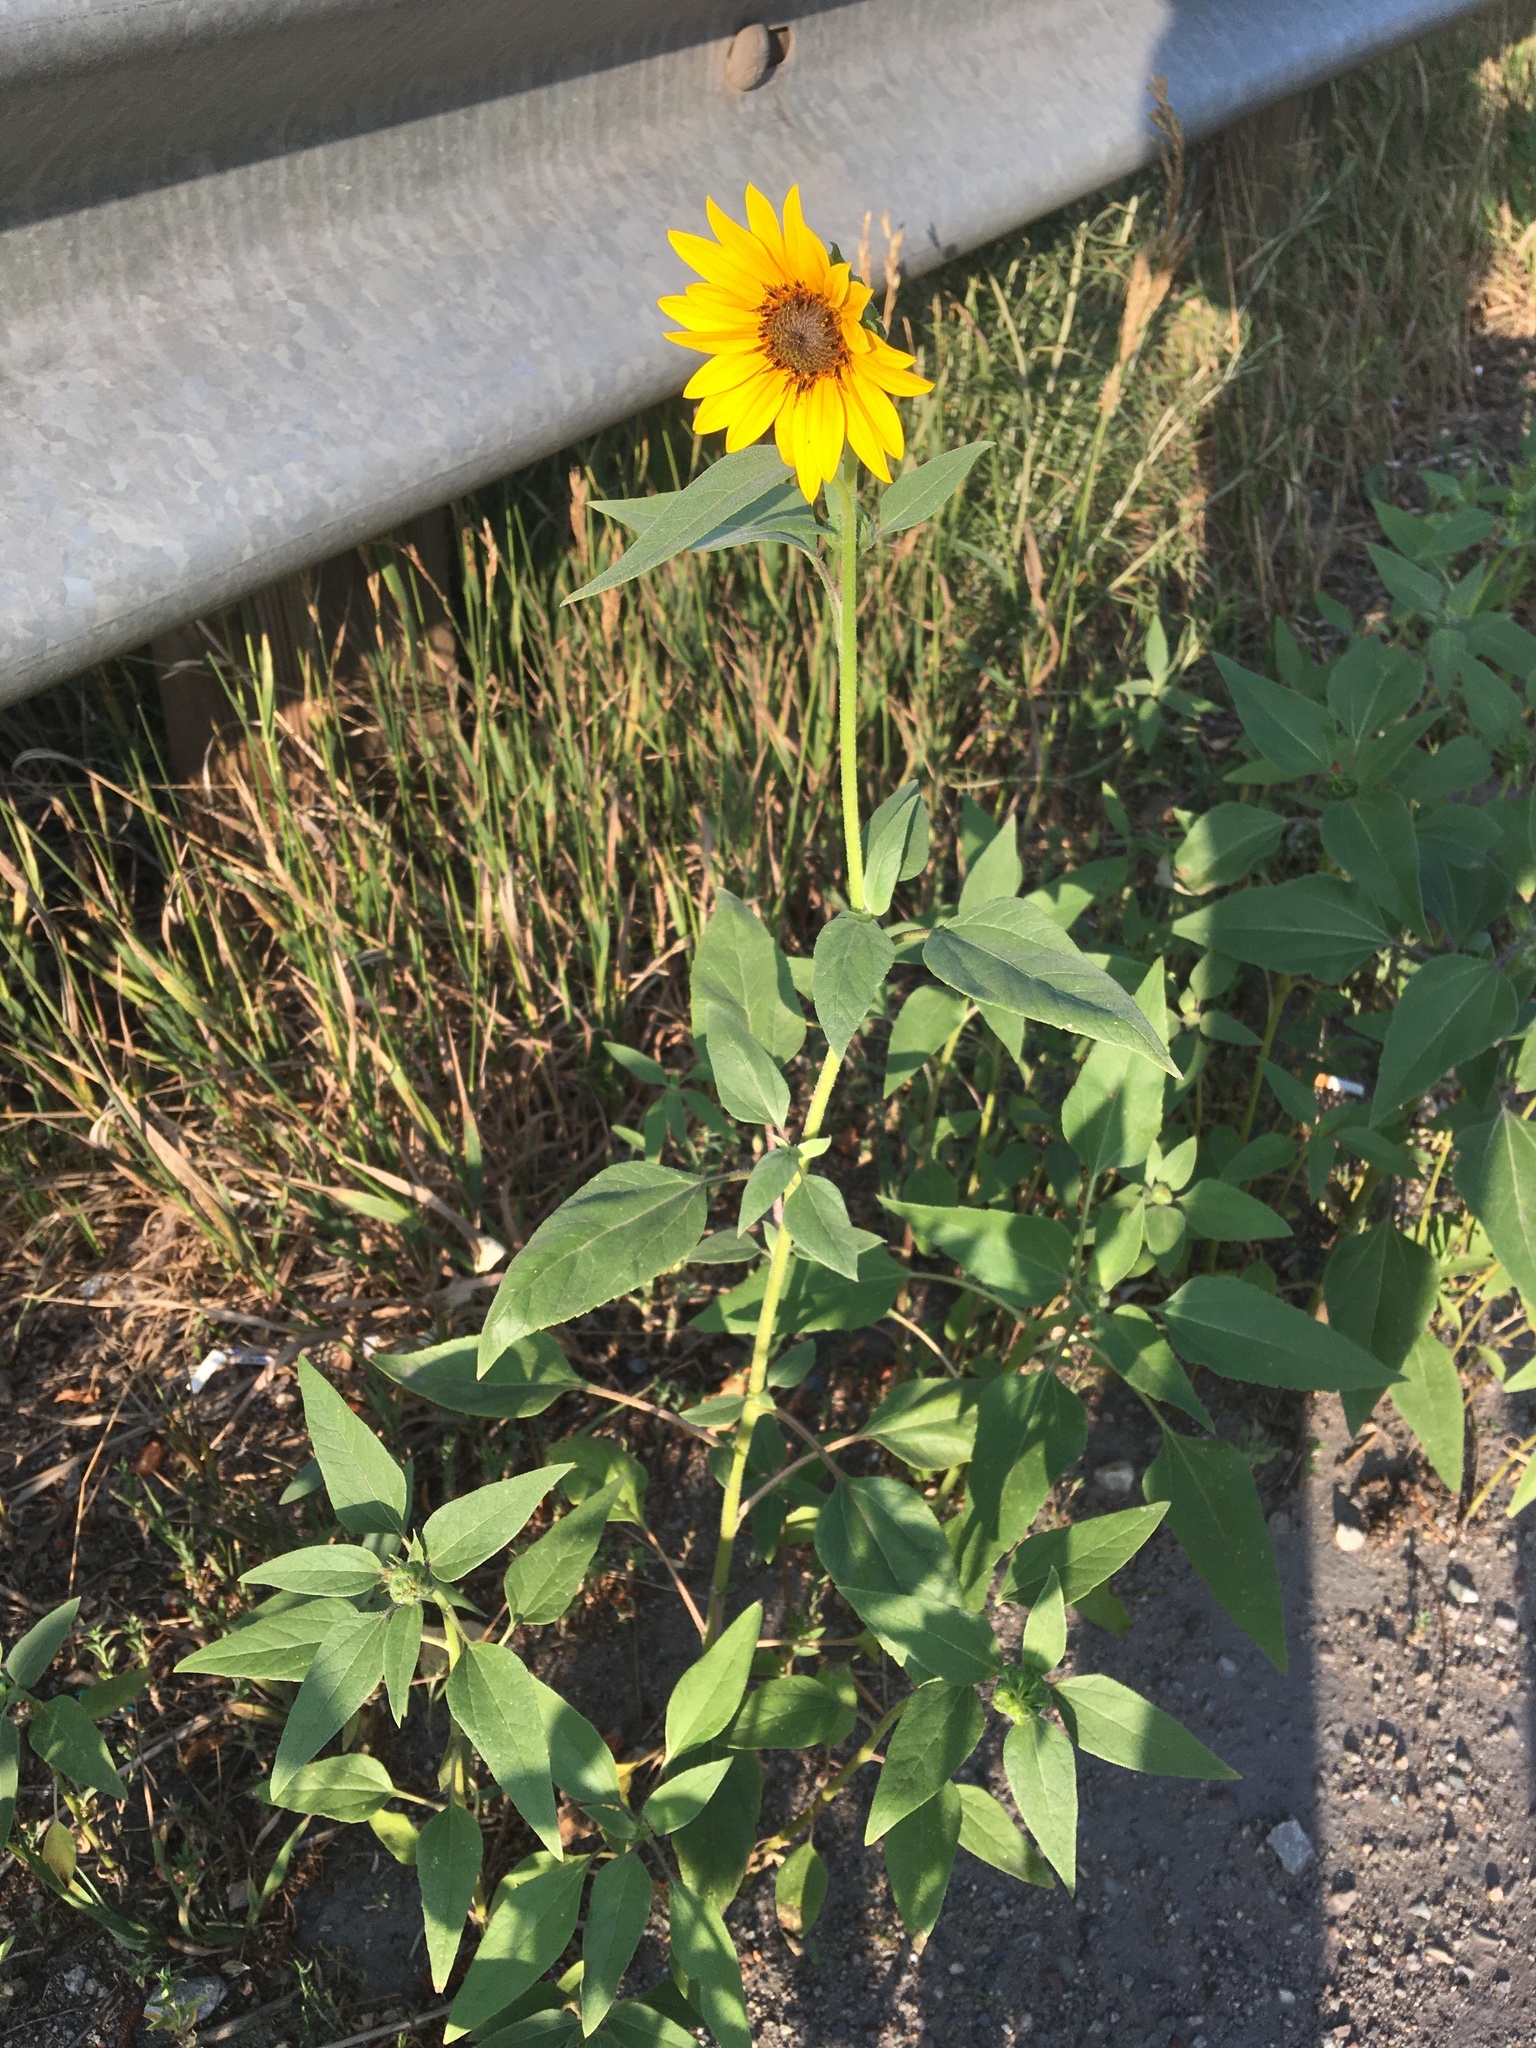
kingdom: Plantae
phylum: Tracheophyta
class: Magnoliopsida
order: Asterales
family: Asteraceae
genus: Helianthus
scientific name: Helianthus annuus
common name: Sunflower
